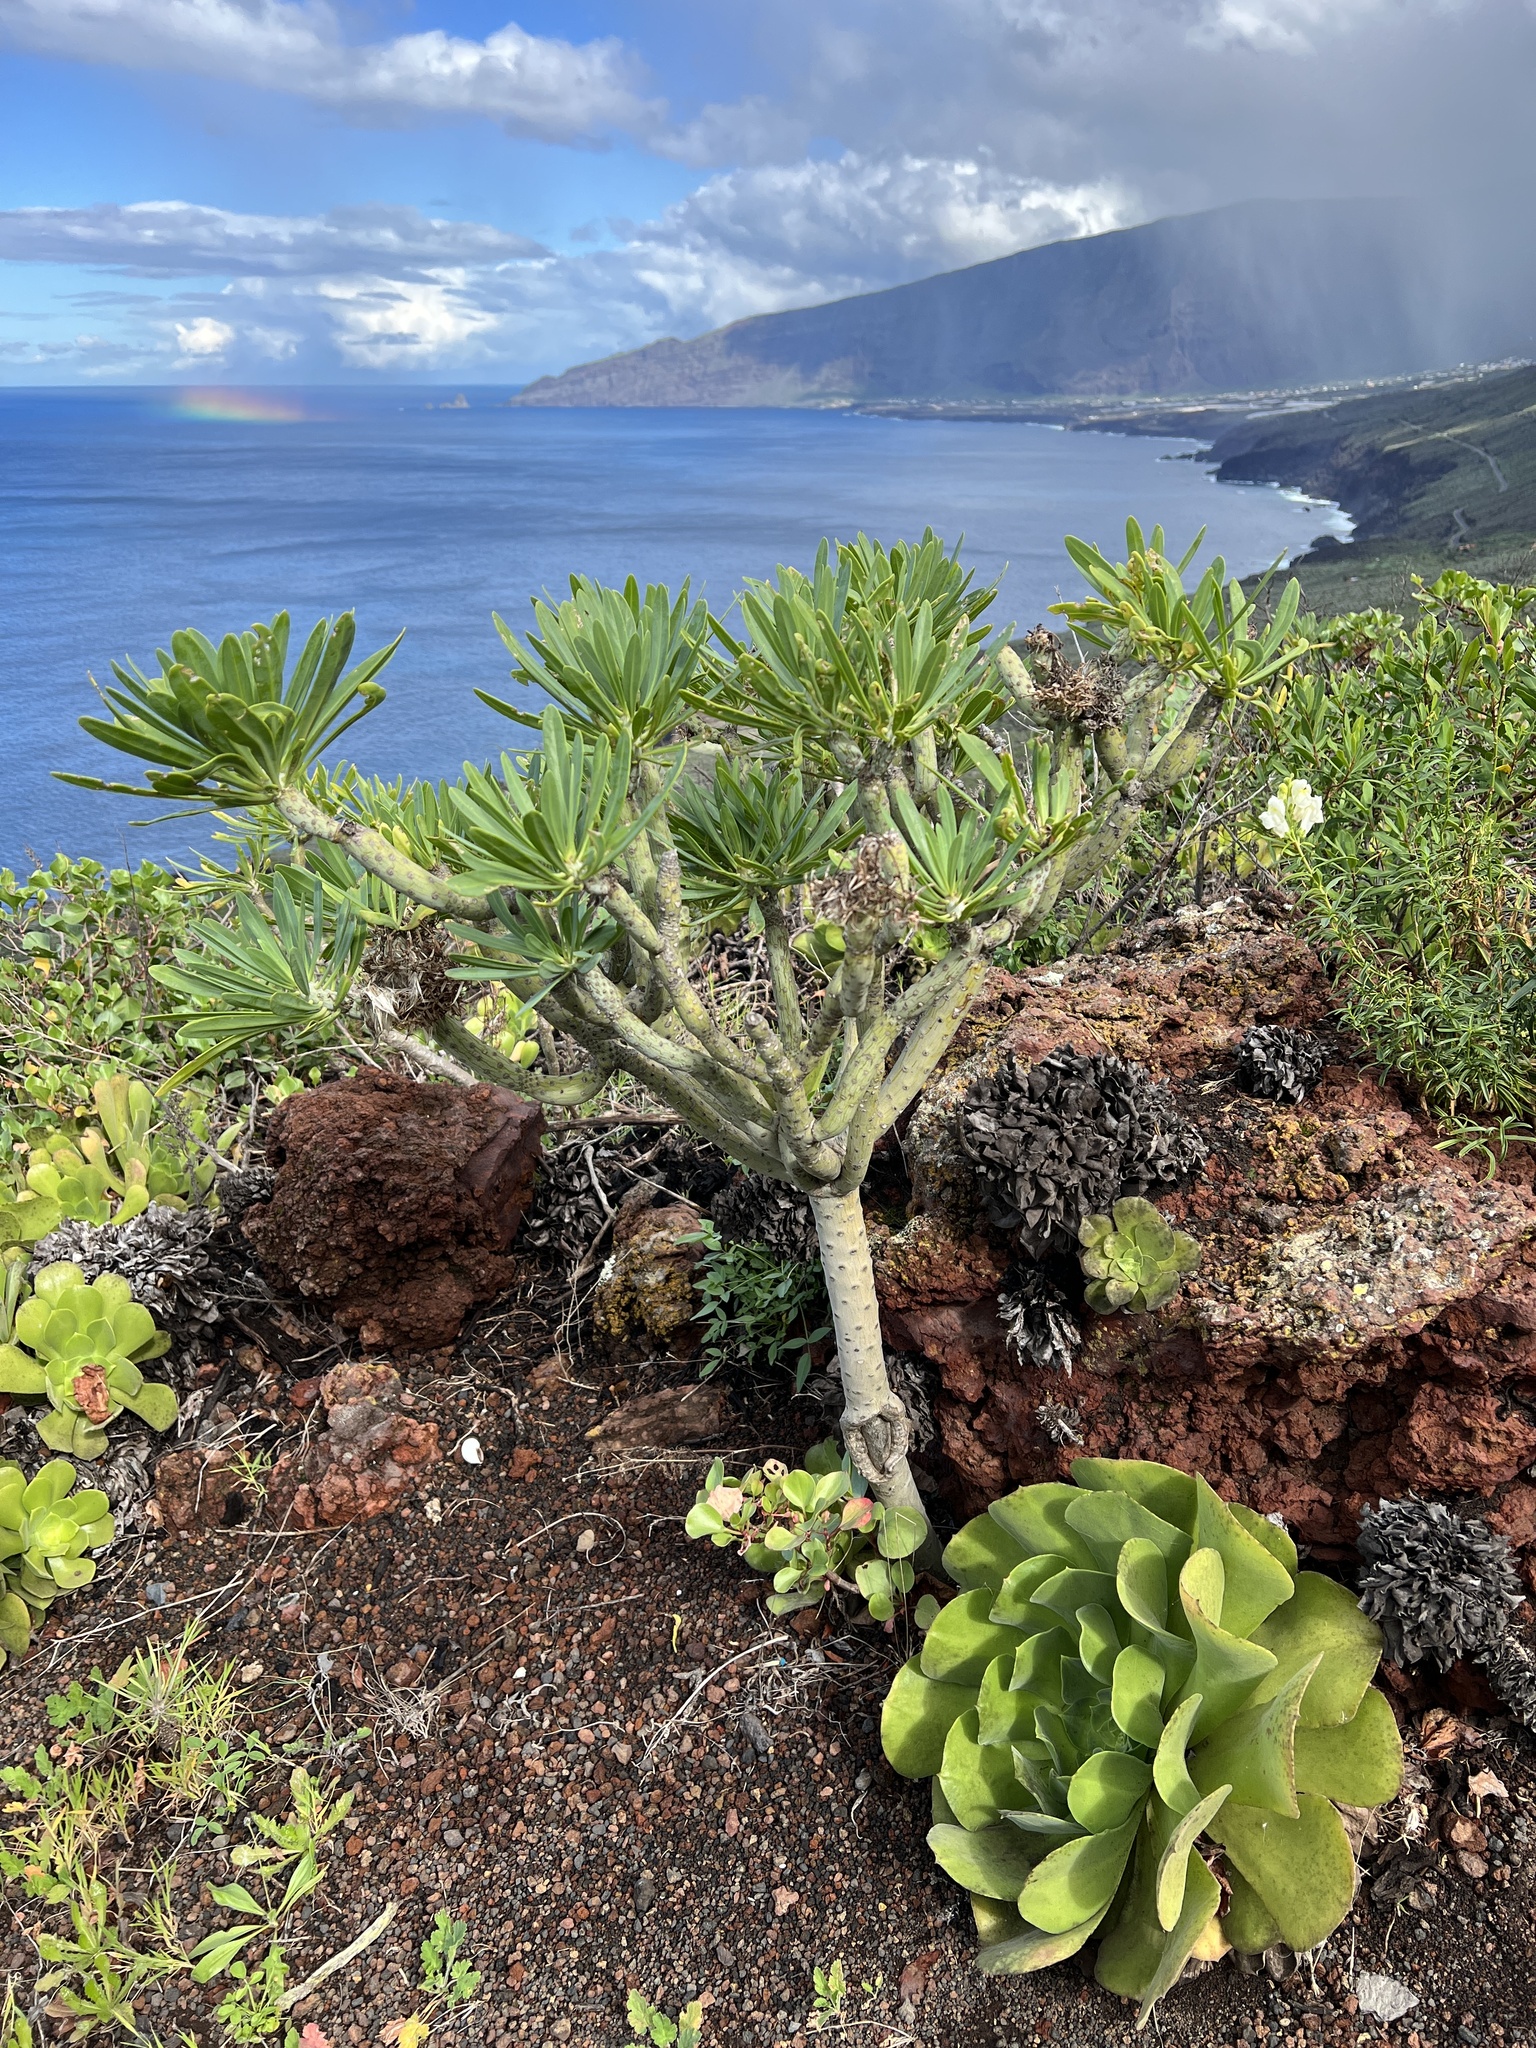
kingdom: Plantae
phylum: Tracheophyta
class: Magnoliopsida
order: Asterales
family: Asteraceae
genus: Kleinia
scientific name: Kleinia neriifolia
